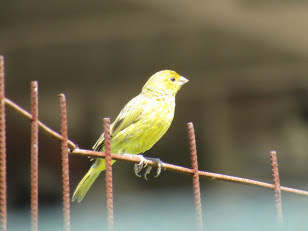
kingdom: Animalia
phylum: Chordata
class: Aves
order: Passeriformes
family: Thraupidae
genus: Sicalis
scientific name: Sicalis flaveola
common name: Saffron finch
